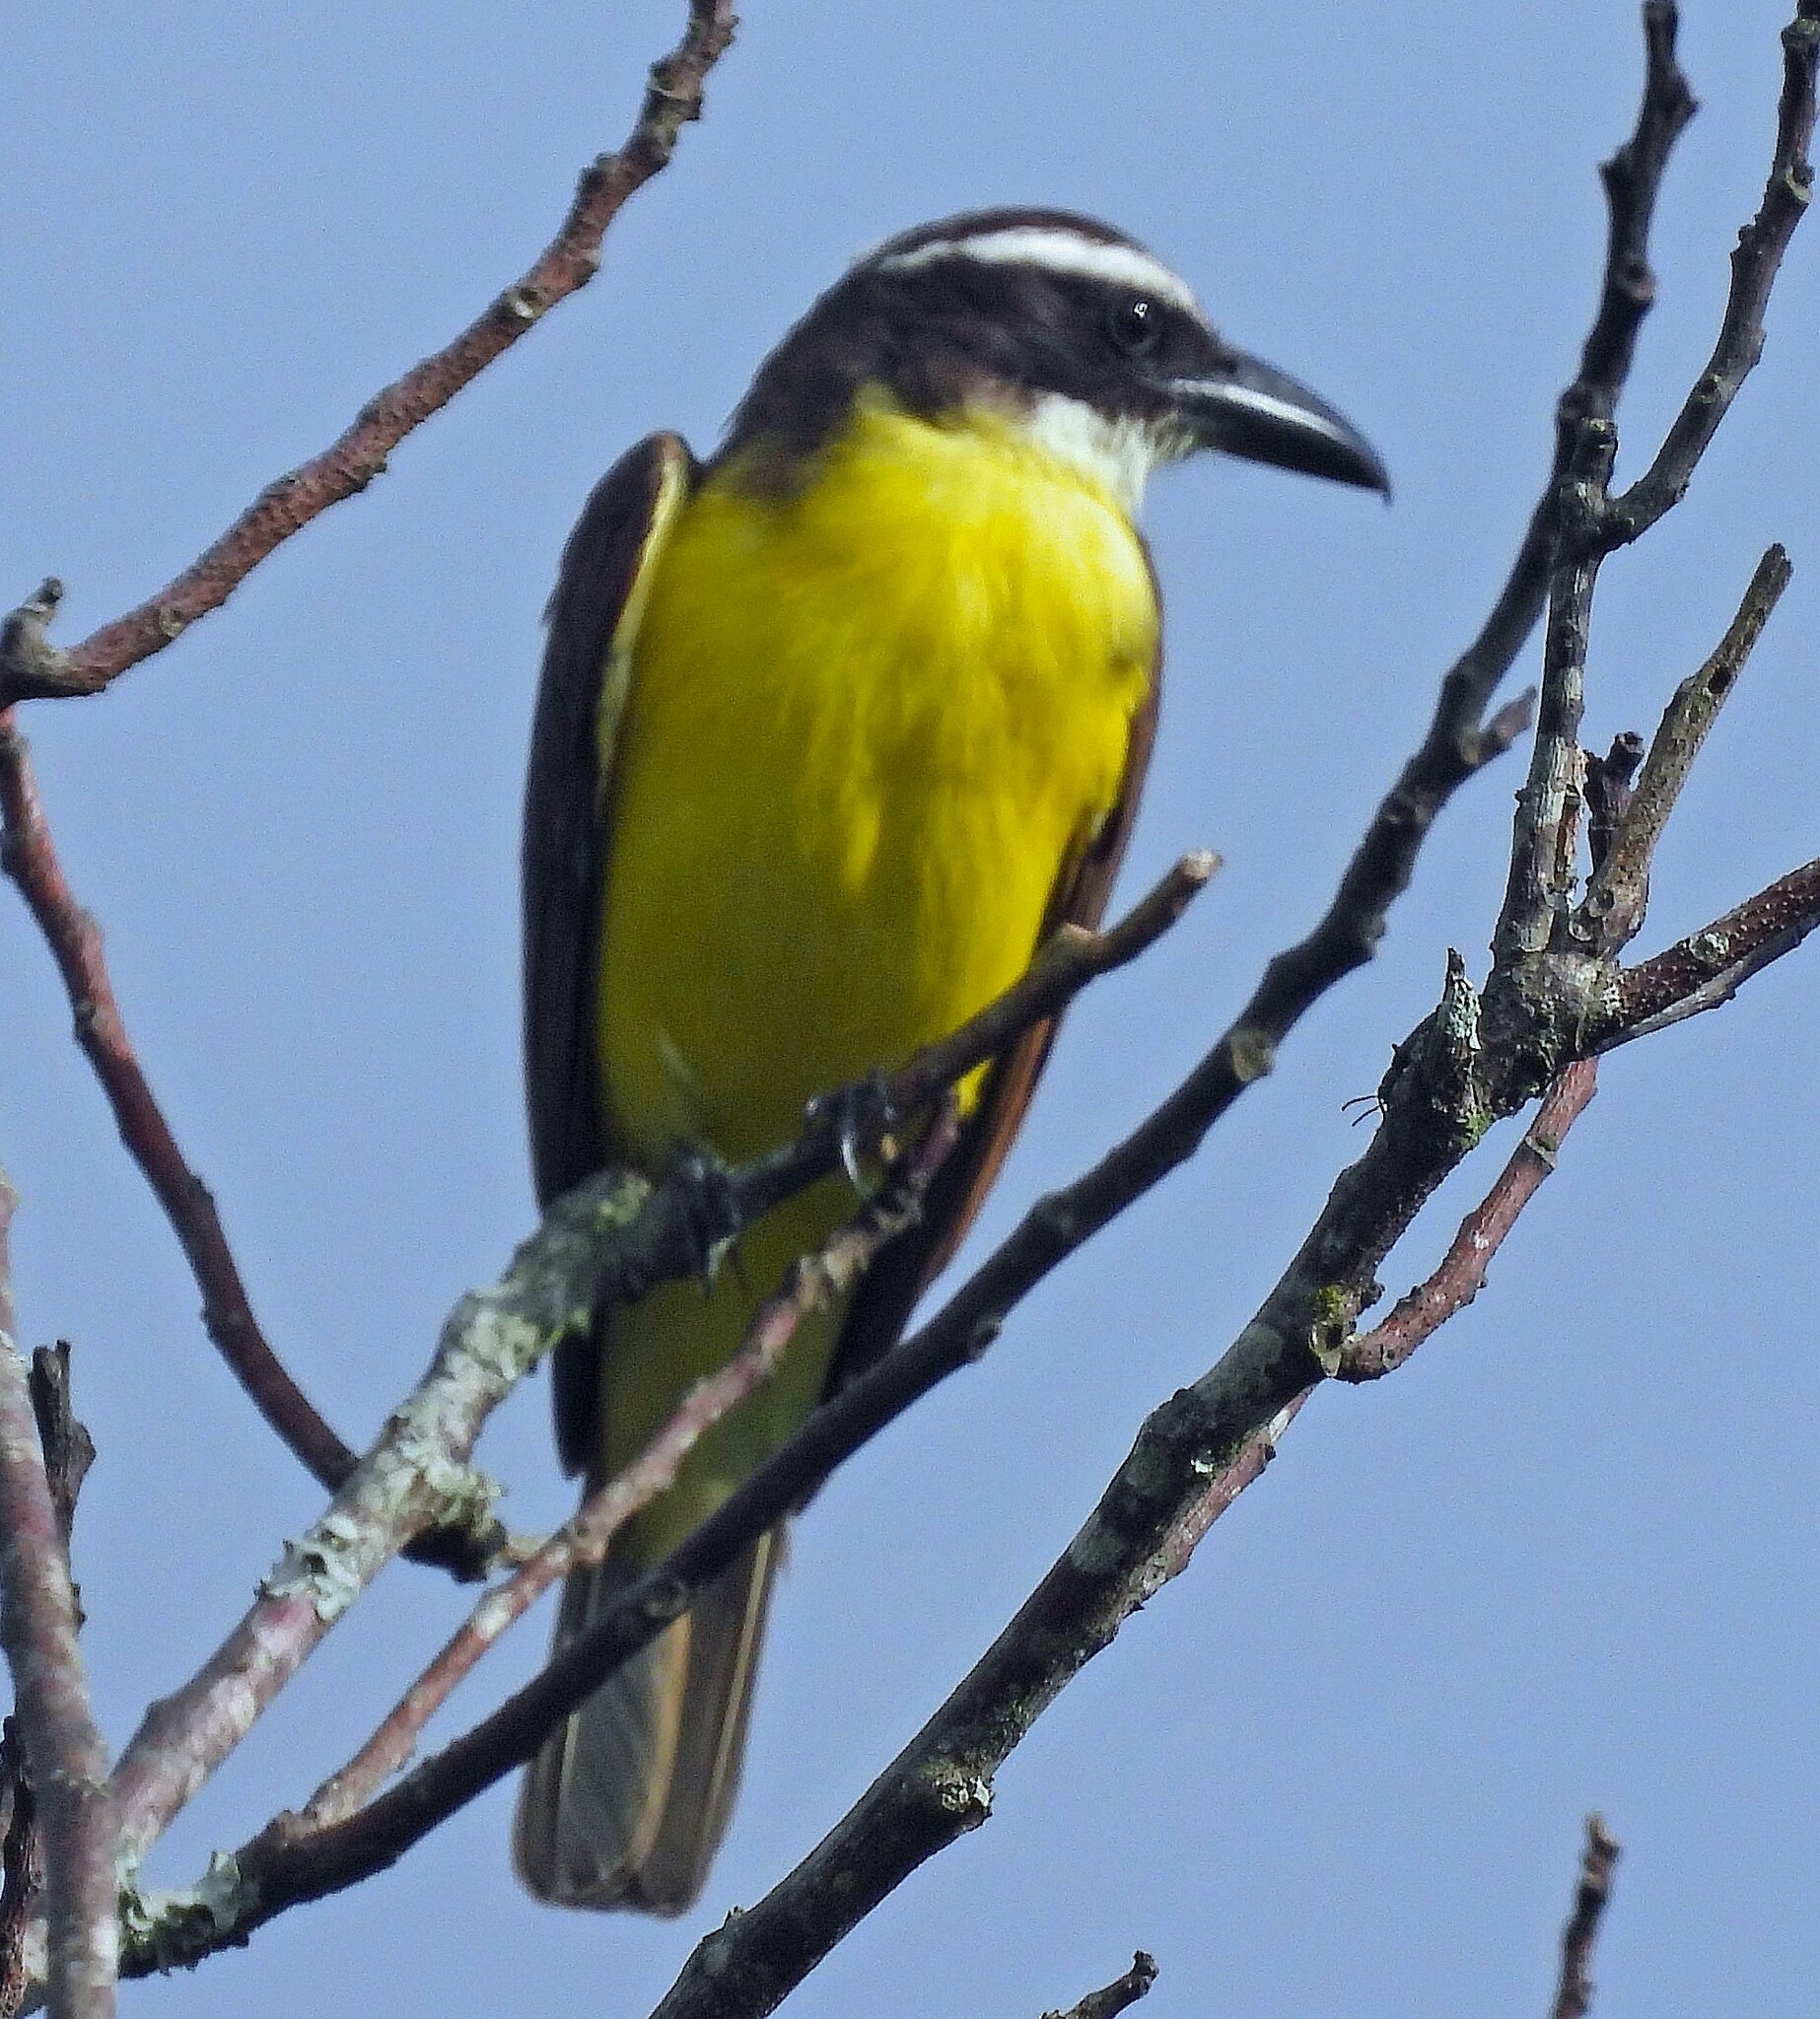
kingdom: Animalia
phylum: Chordata
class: Aves
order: Passeriformes
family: Tyrannidae
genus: Megarynchus
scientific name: Megarynchus pitangua
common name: Boat-billed flycatcher
